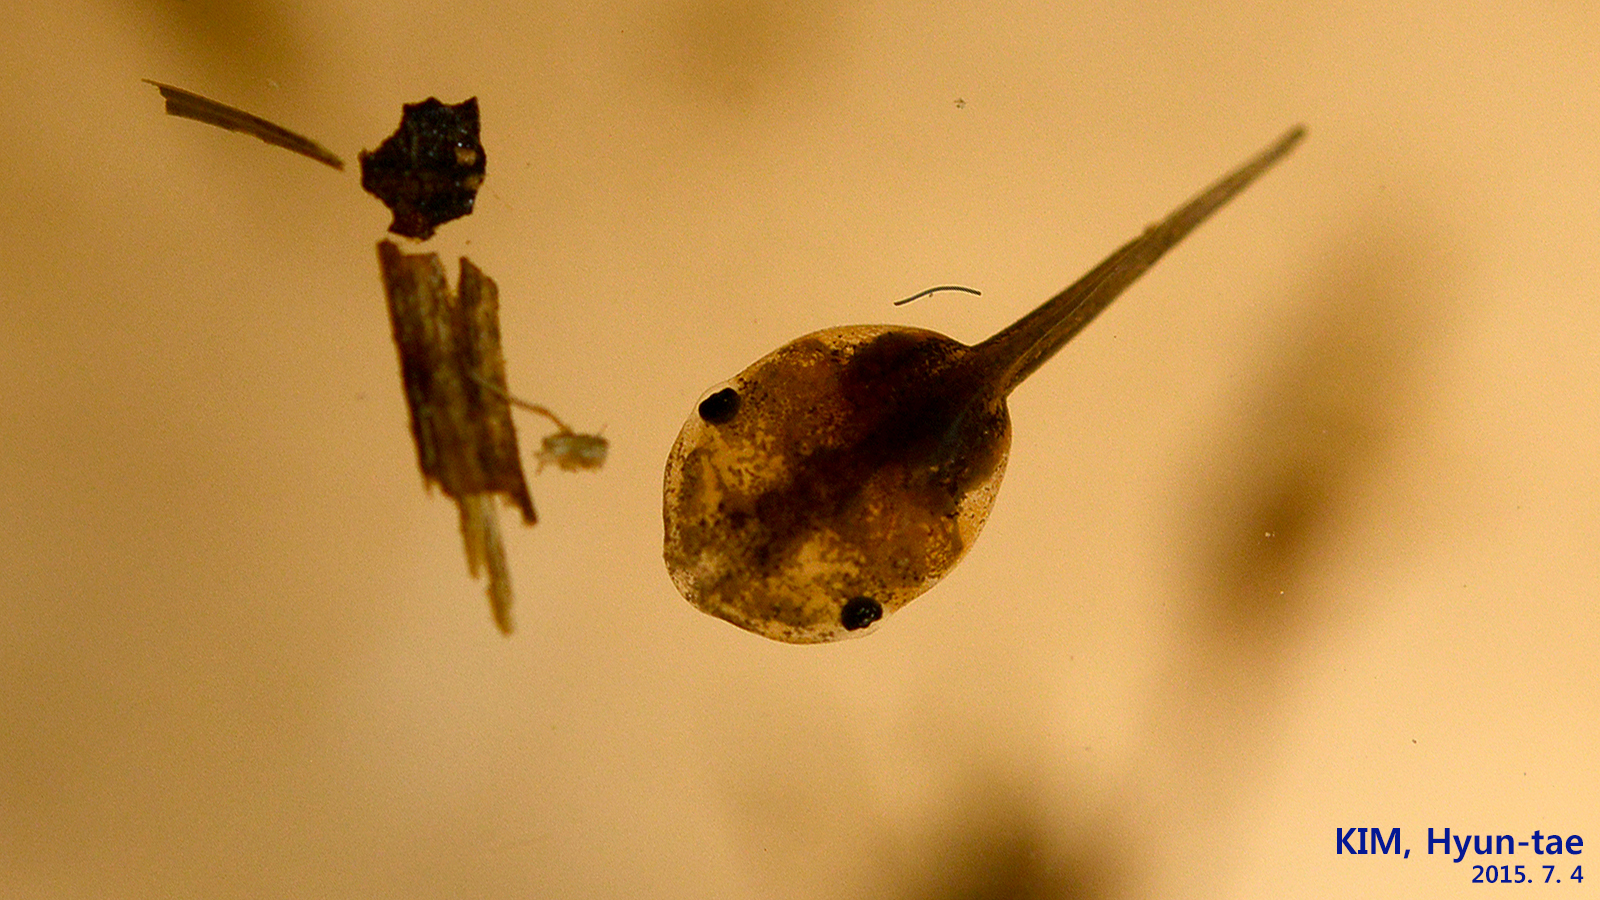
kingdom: Animalia
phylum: Chordata
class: Amphibia
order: Anura
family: Microhylidae
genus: Kaloula
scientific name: Kaloula borealis
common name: Boreal digging frog
